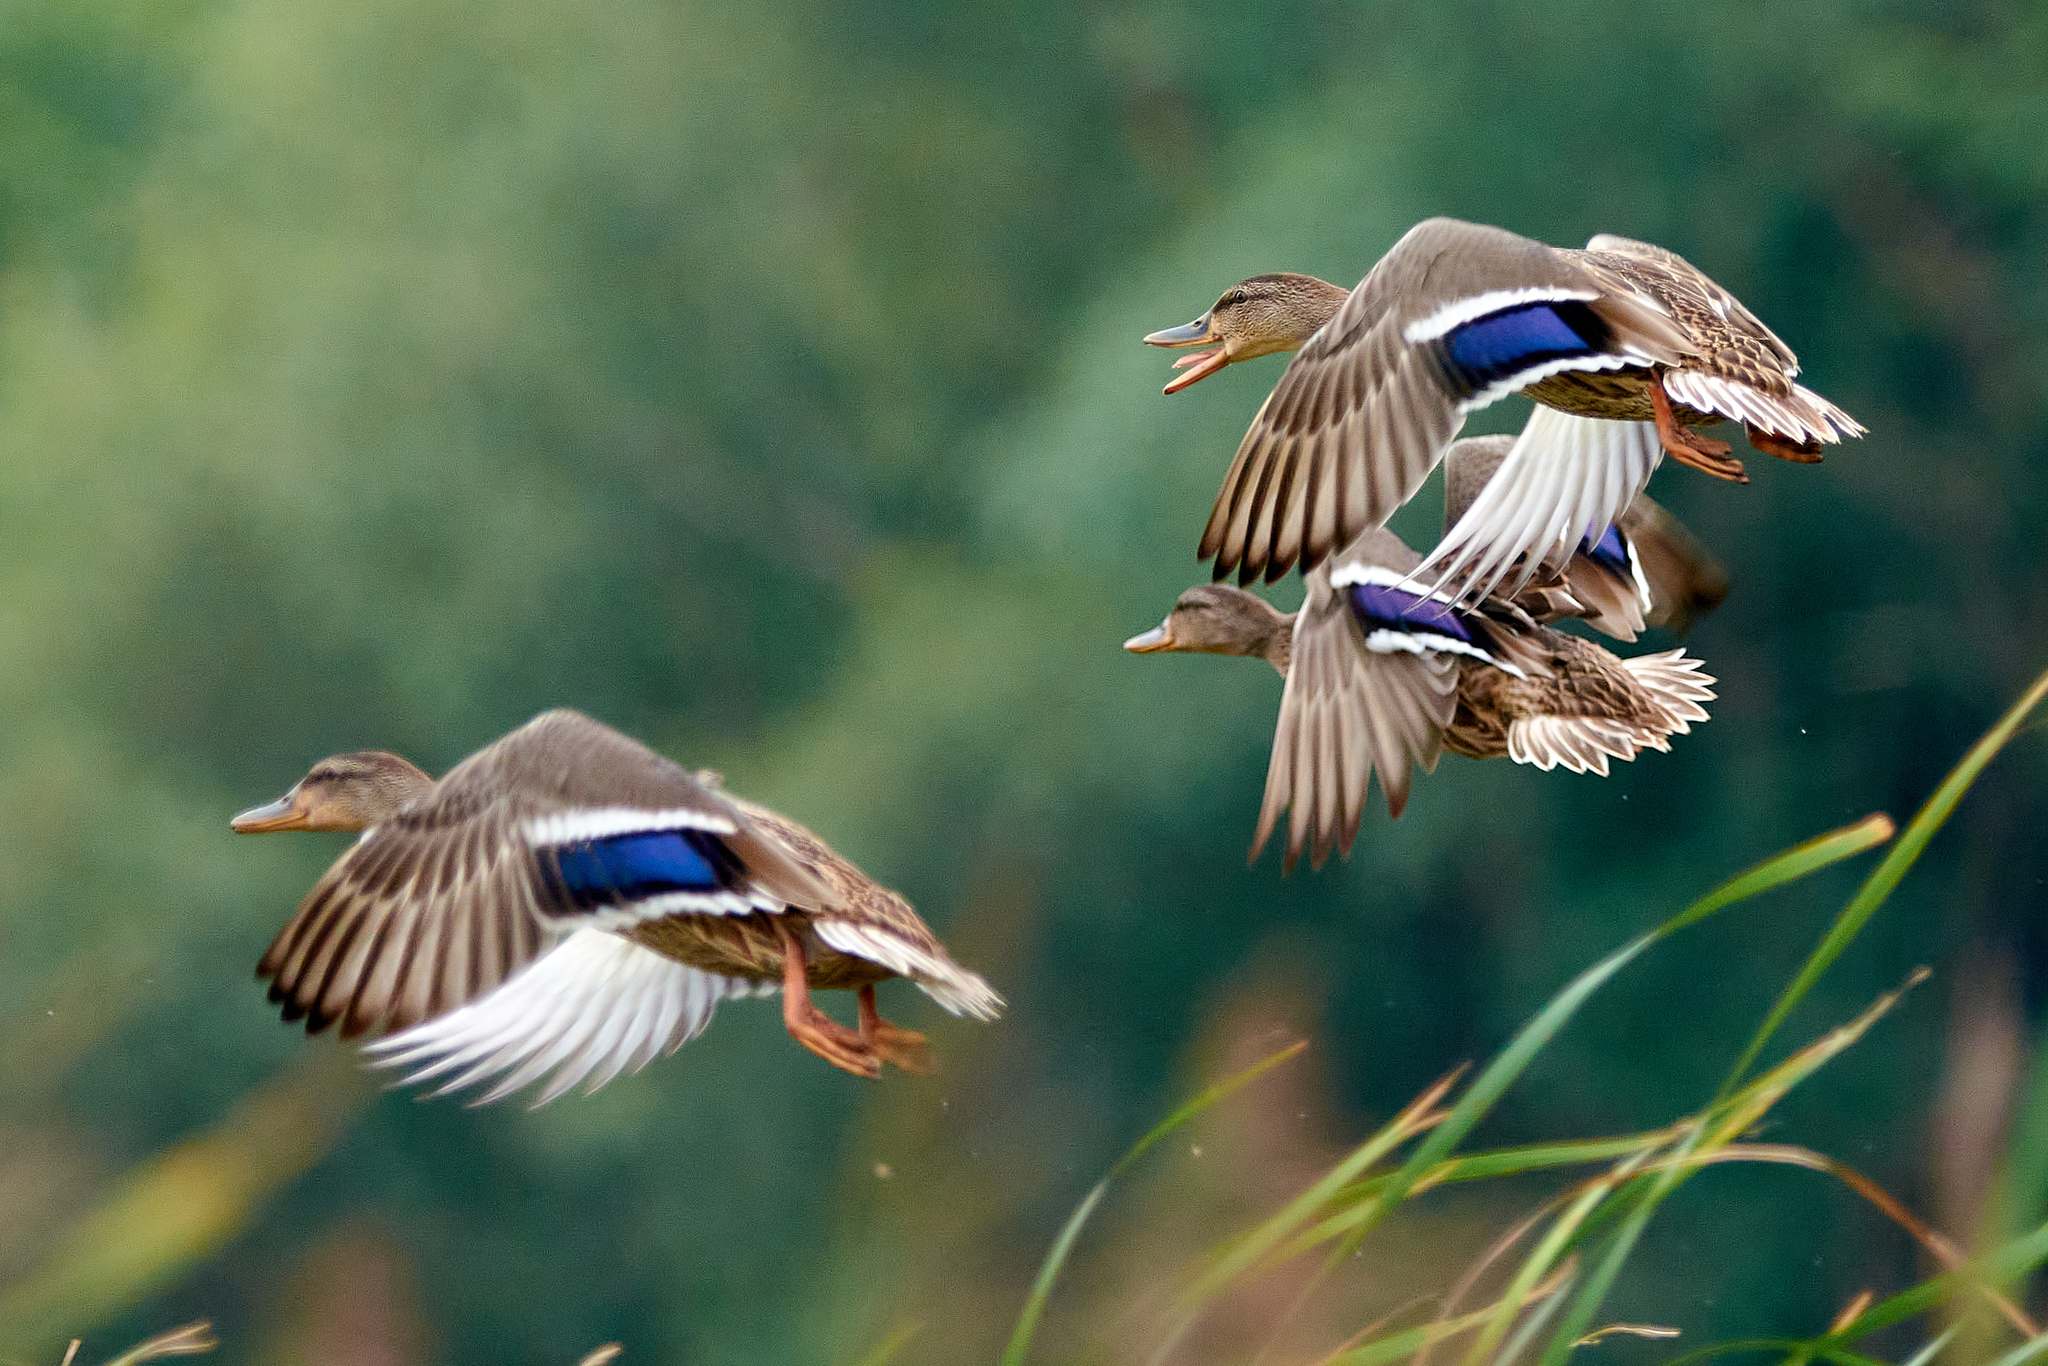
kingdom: Animalia
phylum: Chordata
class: Aves
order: Anseriformes
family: Anatidae
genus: Anas
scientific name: Anas platyrhynchos
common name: Mallard
